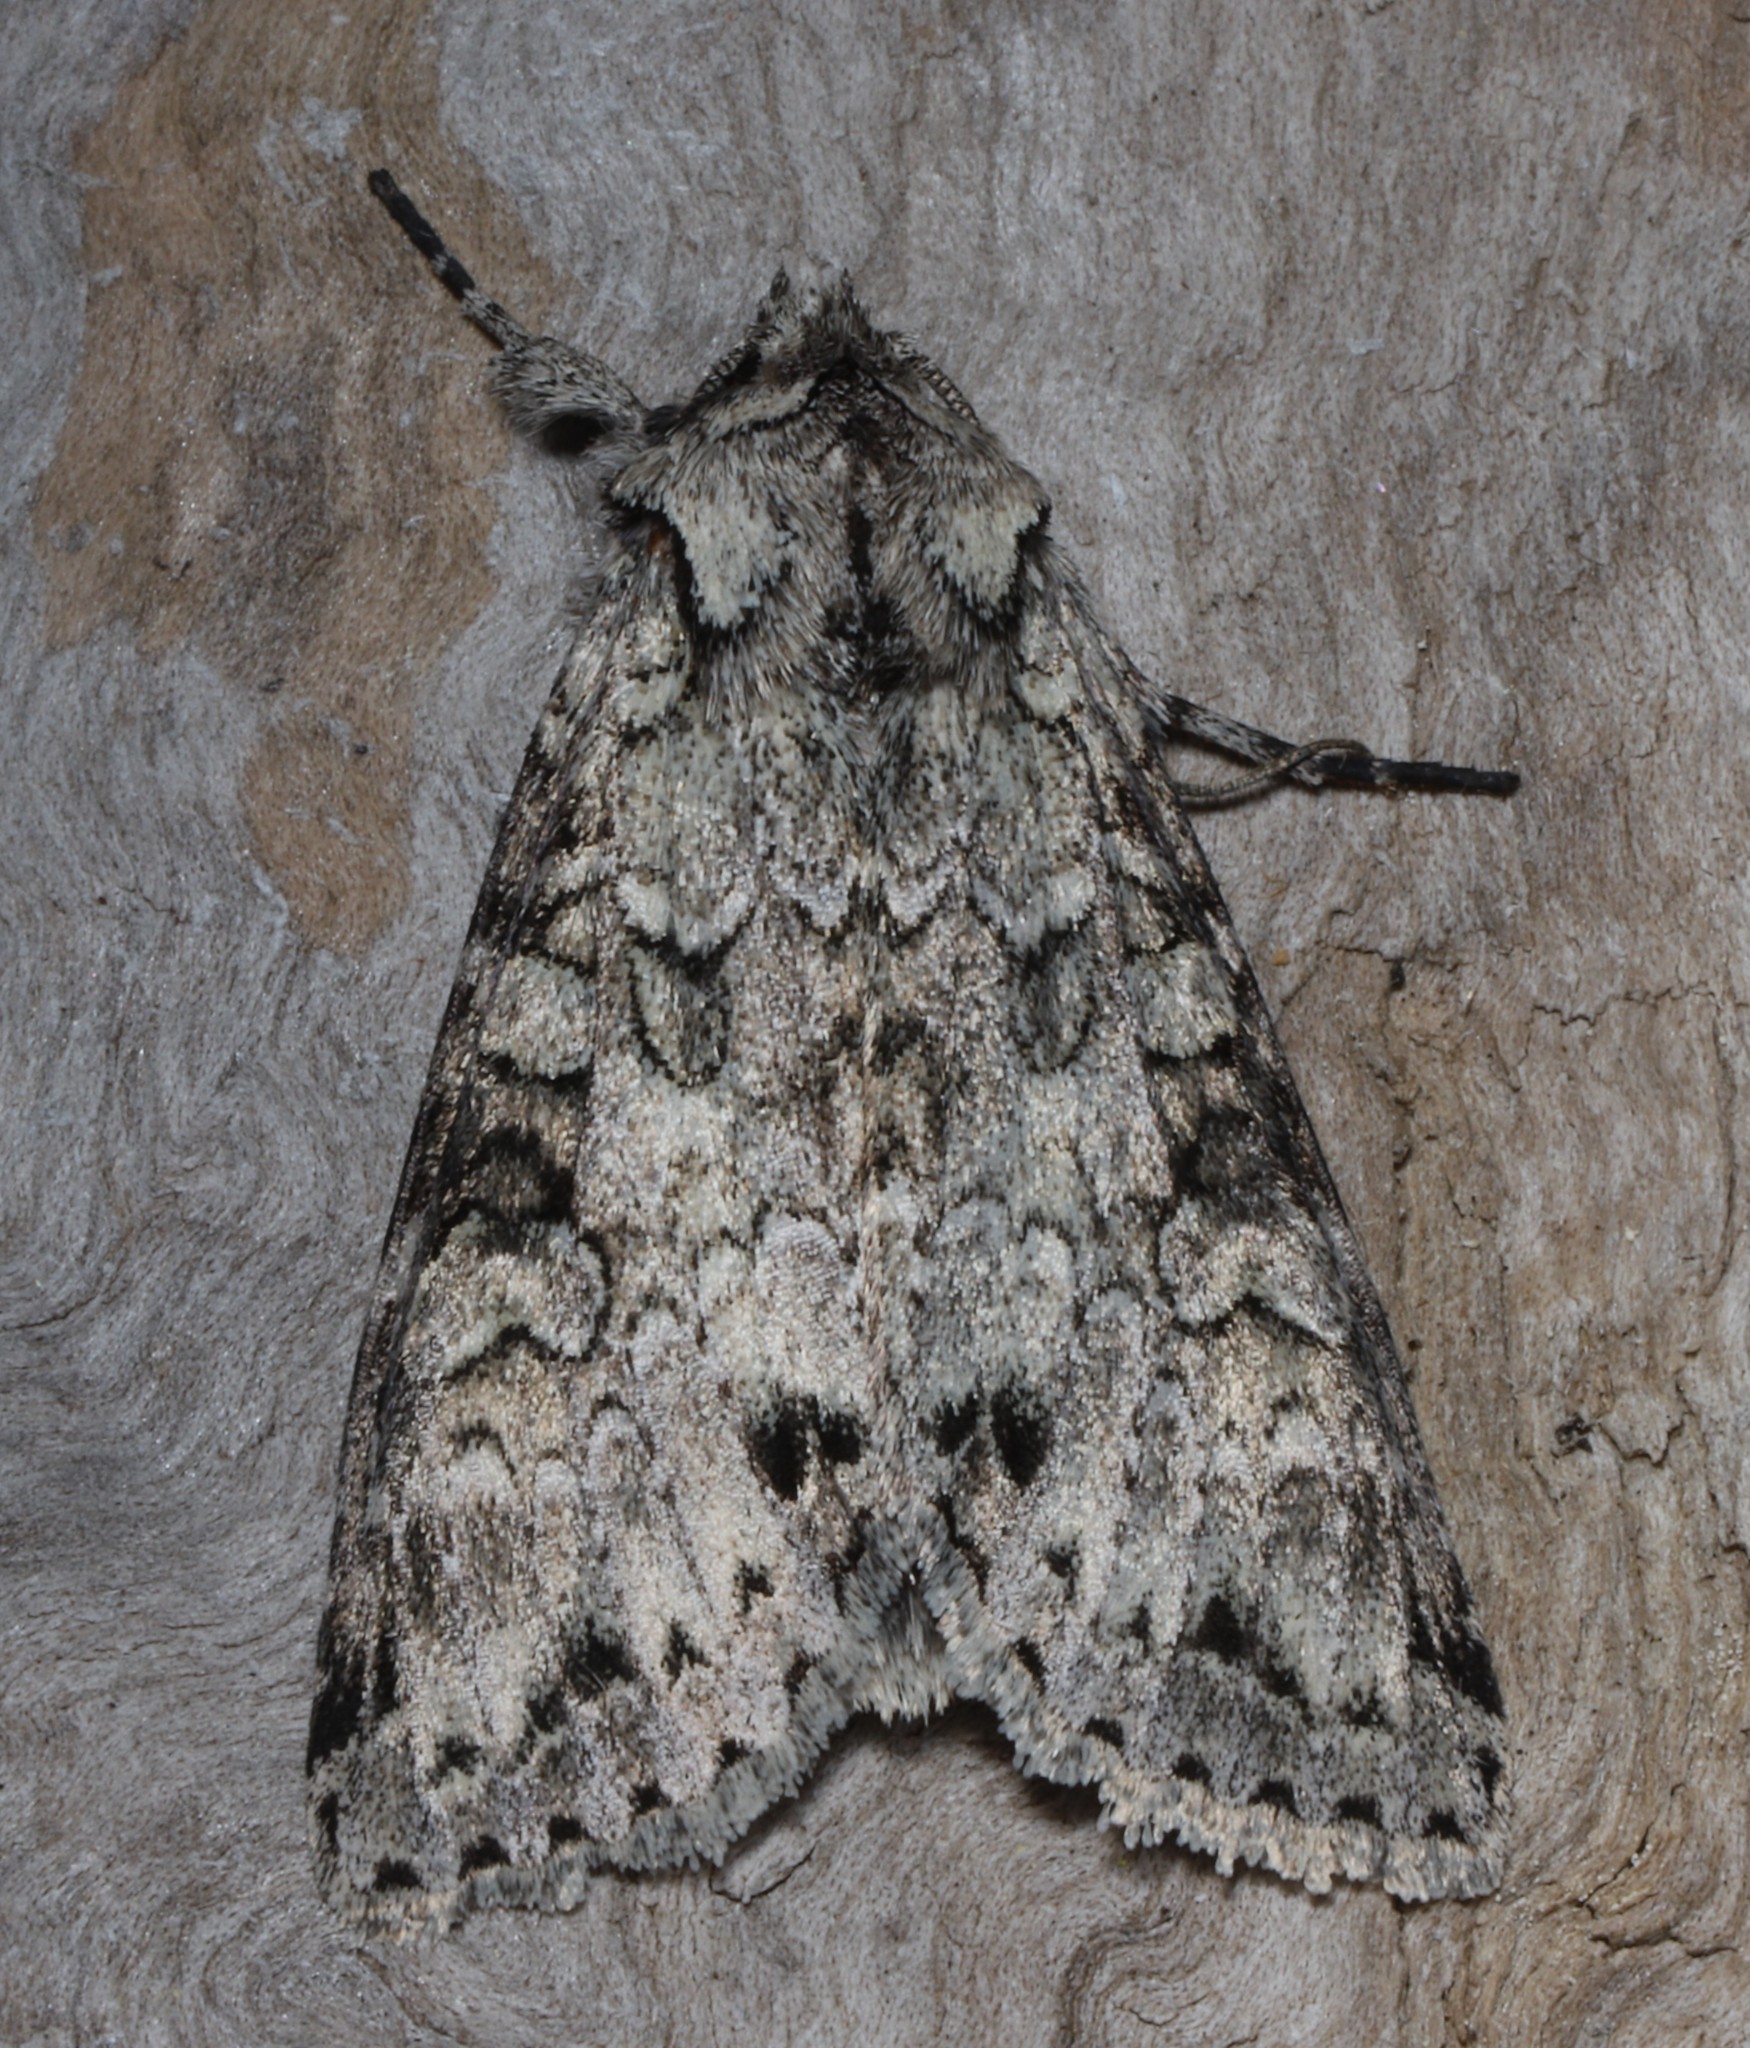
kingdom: Animalia
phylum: Arthropoda
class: Insecta
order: Lepidoptera
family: Noctuidae
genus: Polia
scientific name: Polia nimbosa
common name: Stormy arches
